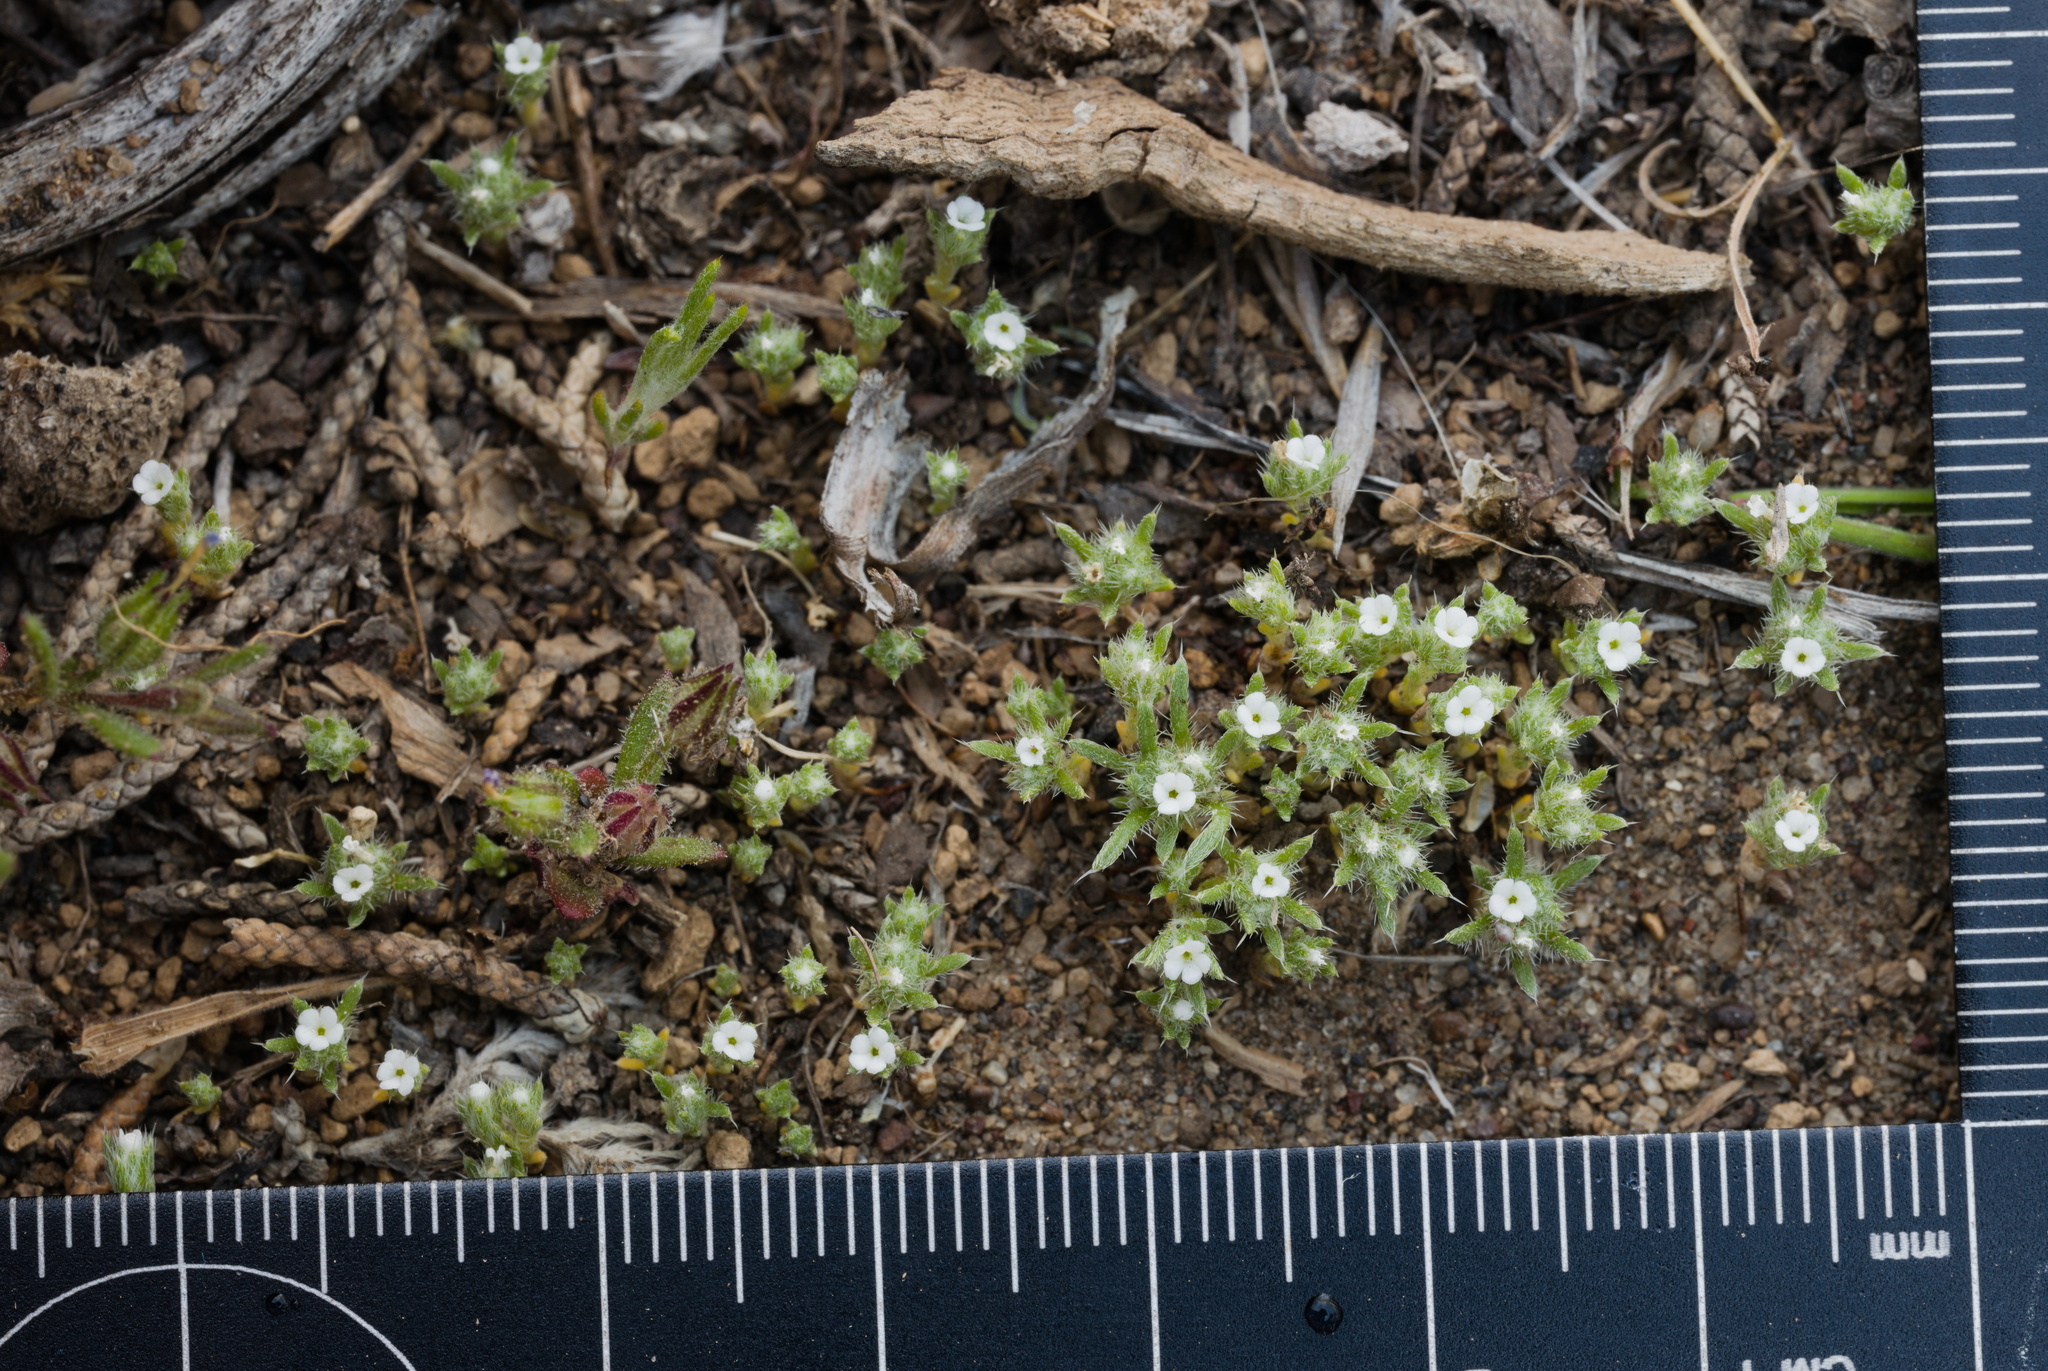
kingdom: Plantae
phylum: Tracheophyta
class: Magnoliopsida
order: Boraginales
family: Boraginaceae
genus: Greeneocharis
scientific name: Greeneocharis circumscissa
